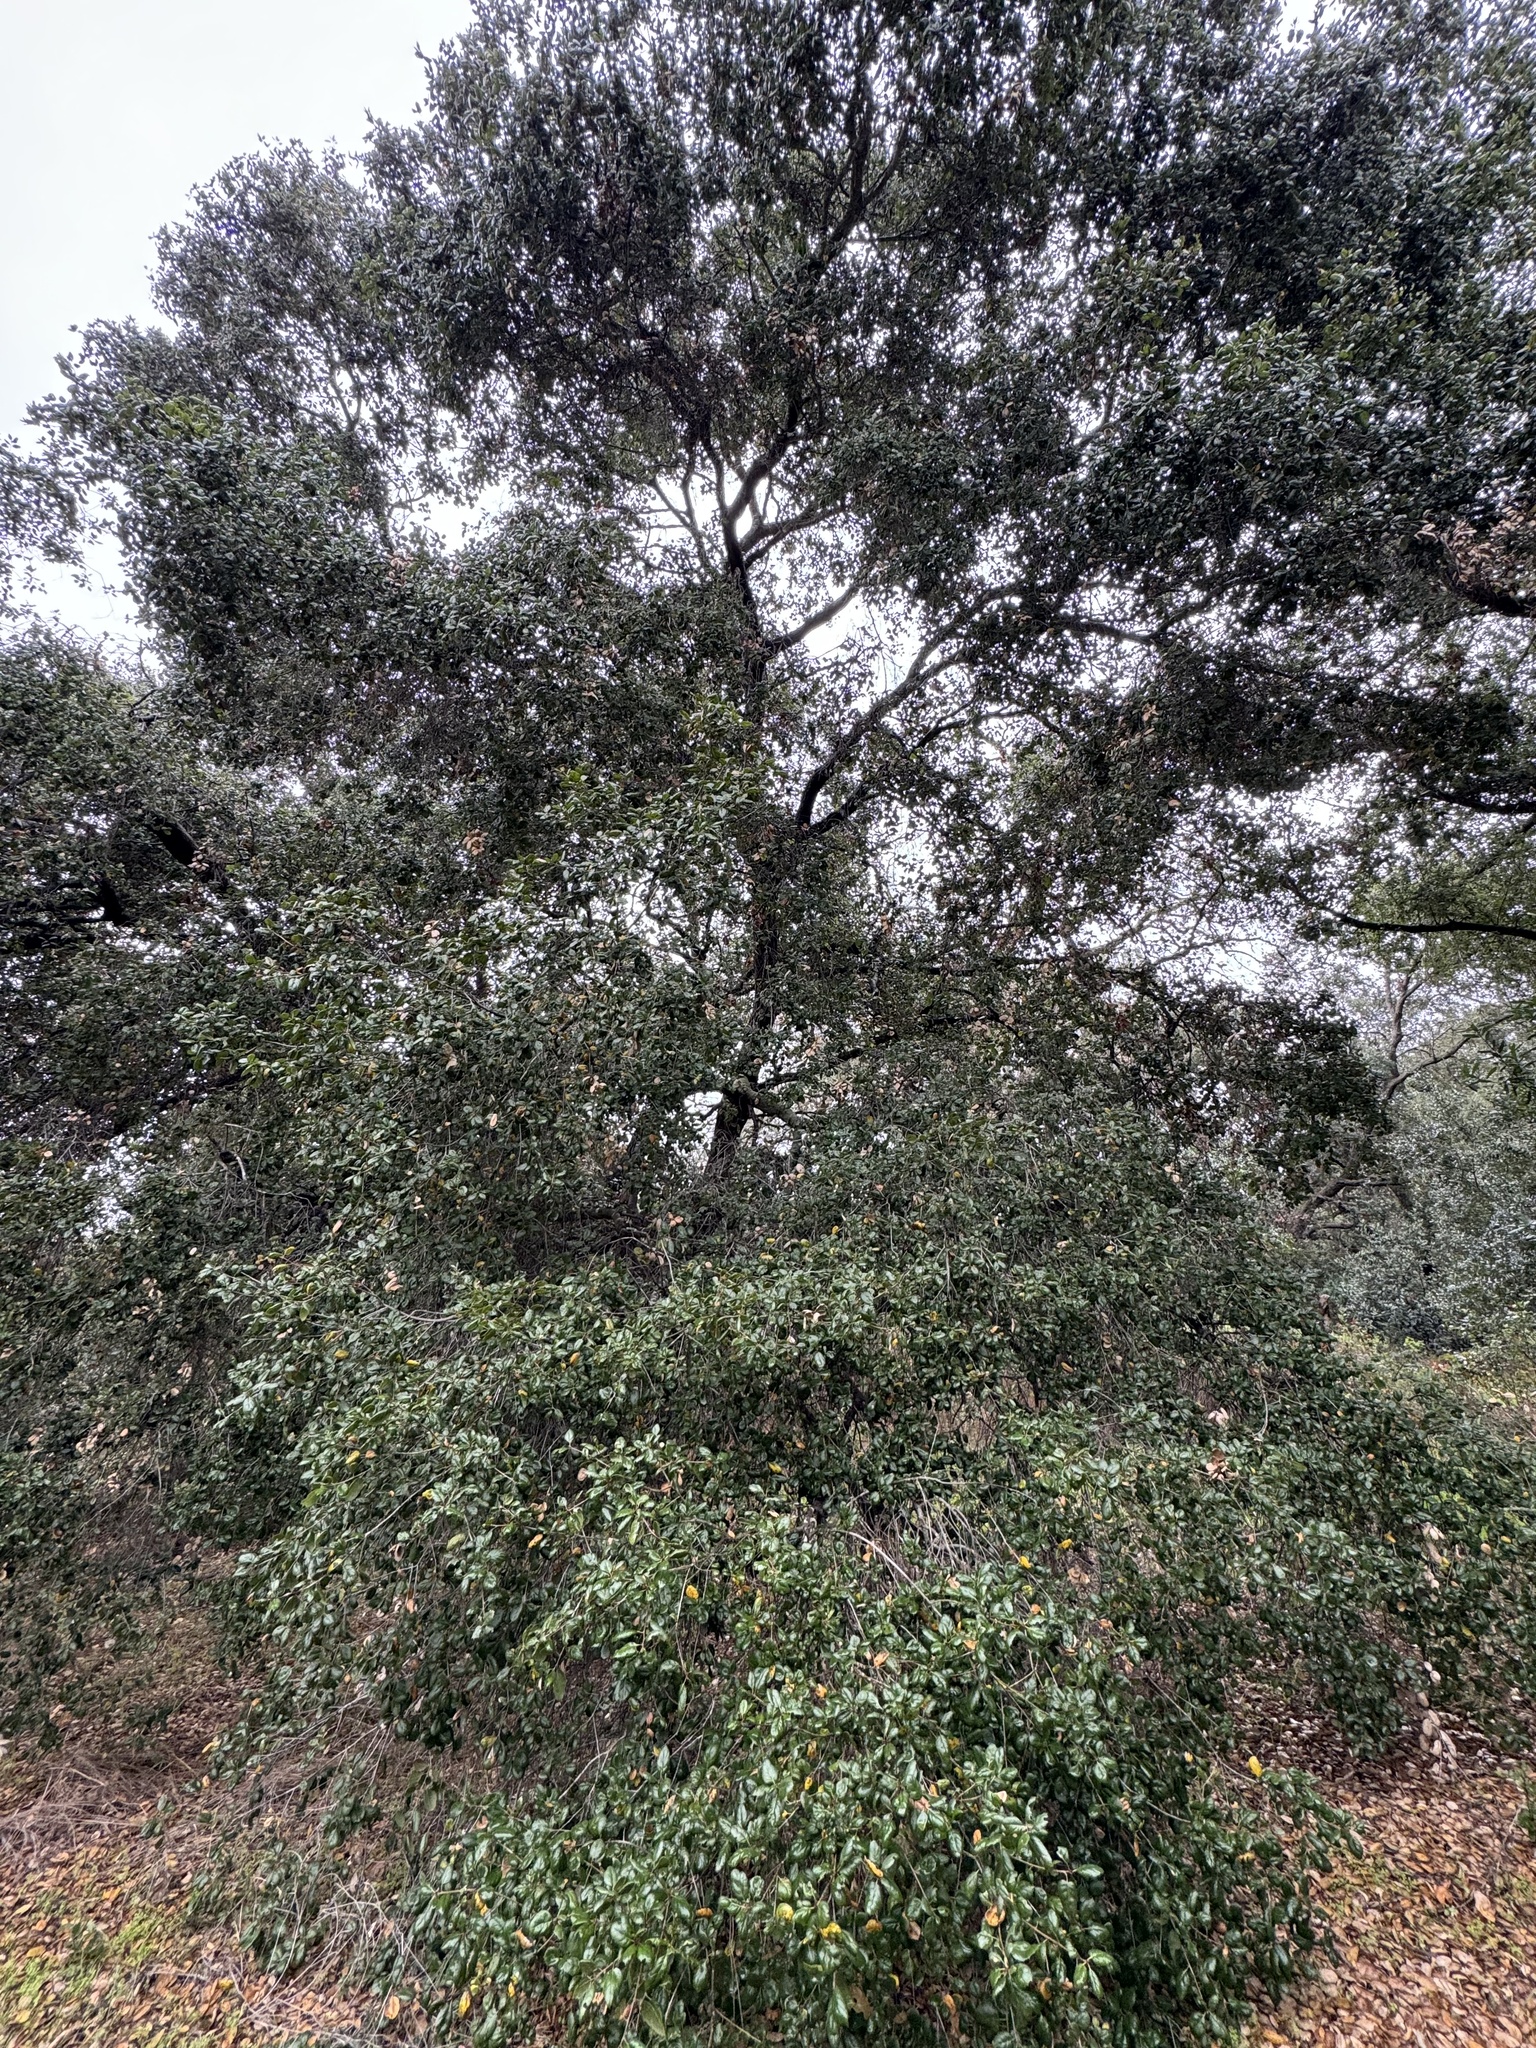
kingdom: Plantae
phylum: Tracheophyta
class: Magnoliopsida
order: Fagales
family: Fagaceae
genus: Quercus
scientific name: Quercus agrifolia
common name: California live oak
